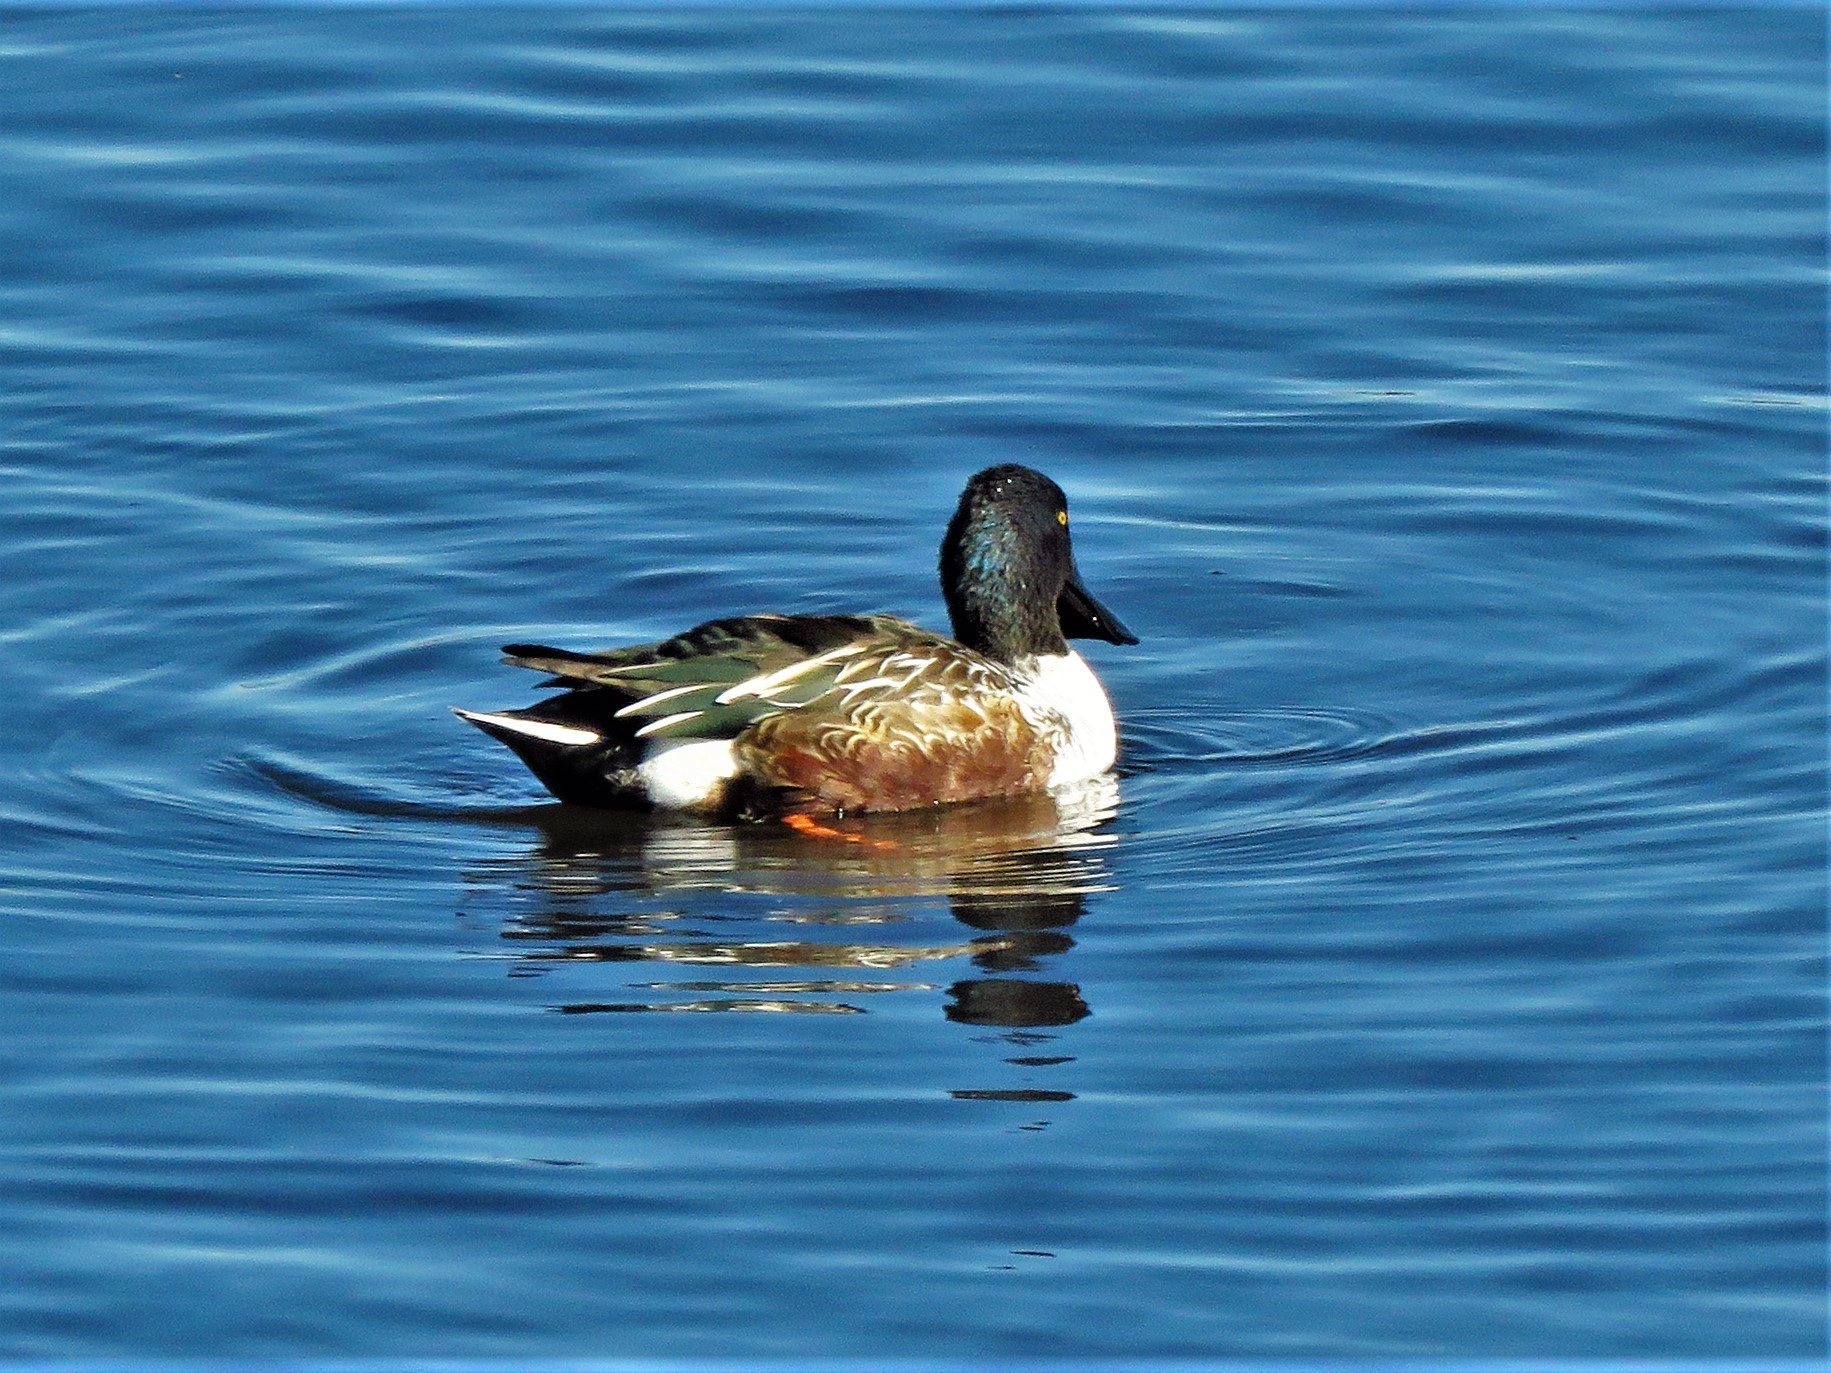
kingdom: Animalia
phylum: Chordata
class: Aves
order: Anseriformes
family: Anatidae
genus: Spatula
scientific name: Spatula clypeata
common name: Northern shoveler
